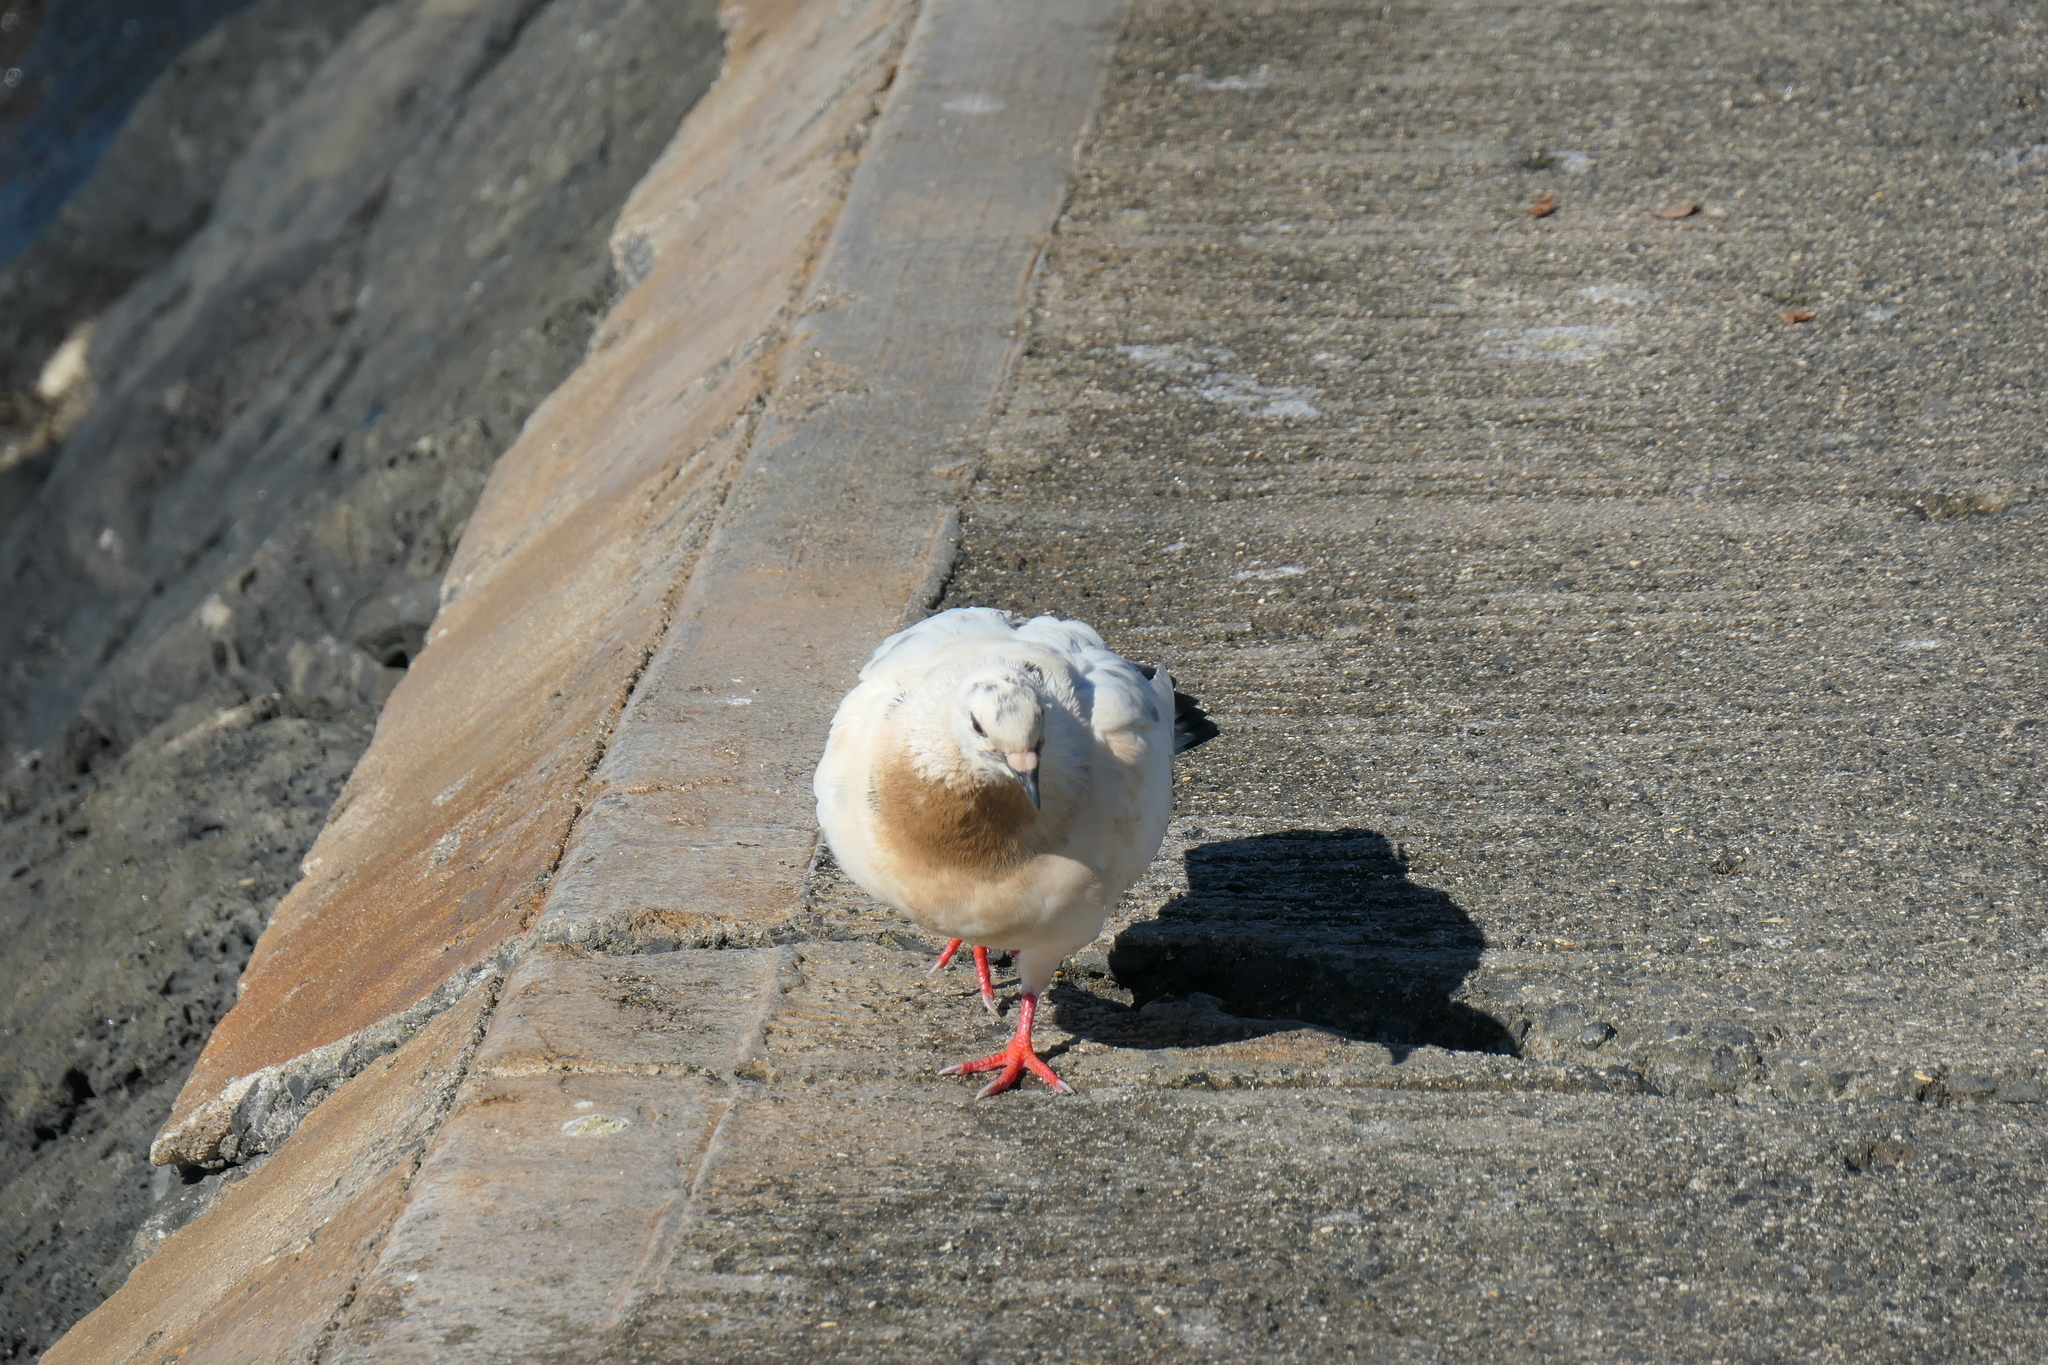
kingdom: Animalia
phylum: Chordata
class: Aves
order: Columbiformes
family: Columbidae
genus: Columba
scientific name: Columba livia
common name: Rock pigeon
